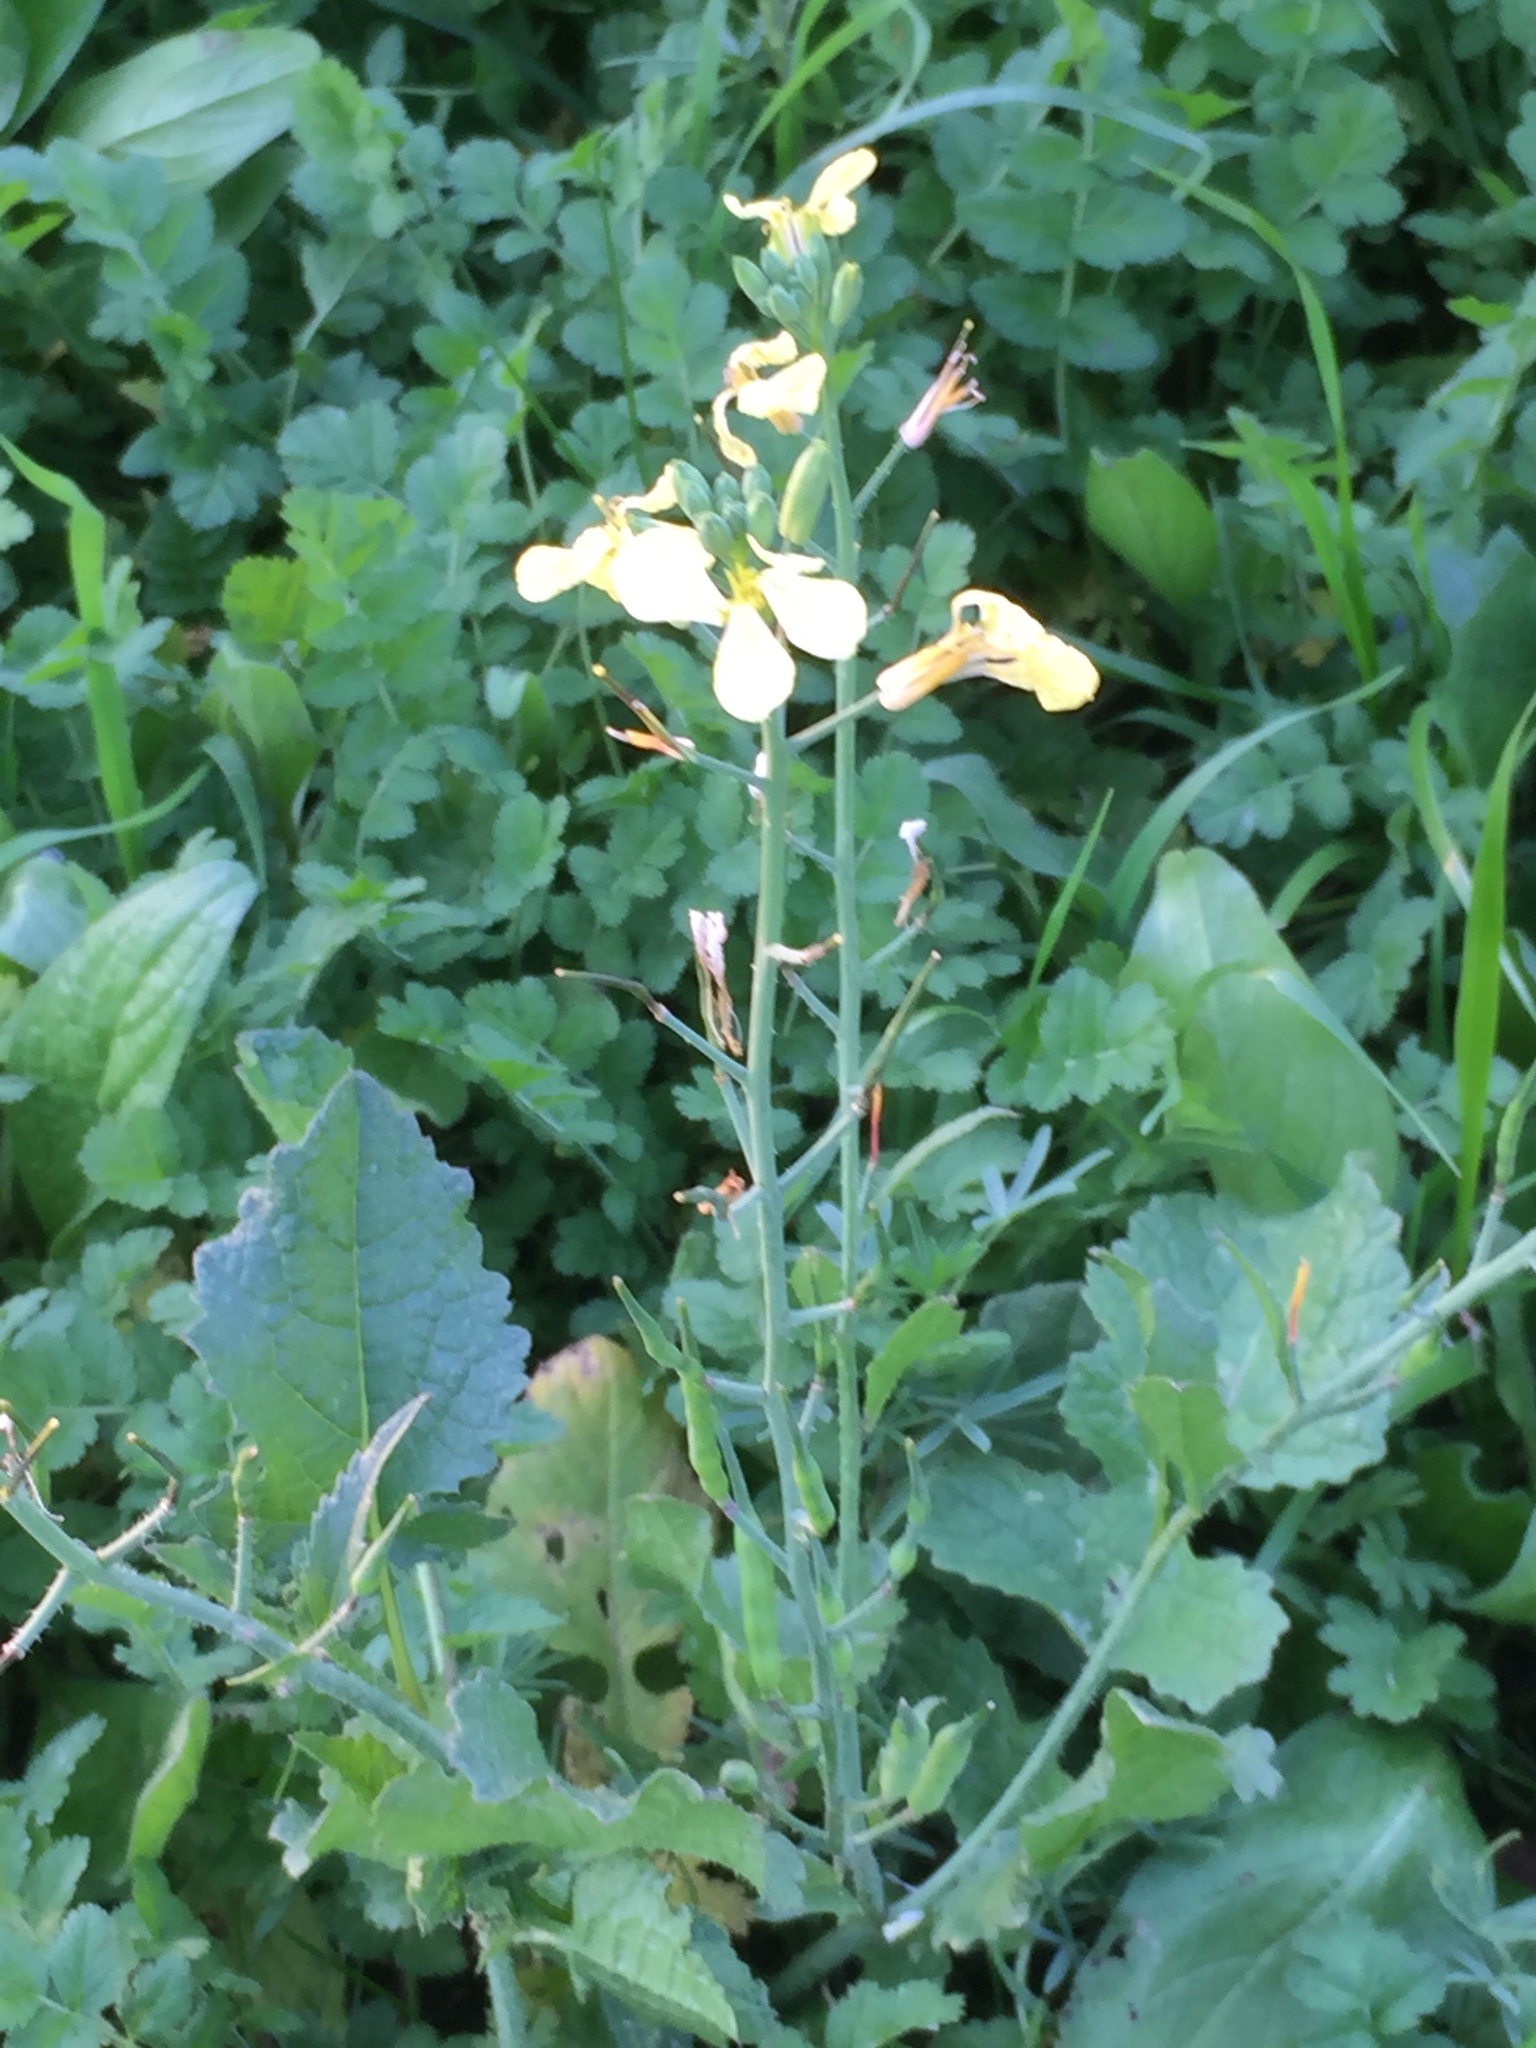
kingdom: Plantae
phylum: Tracheophyta
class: Magnoliopsida
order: Brassicales
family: Brassicaceae
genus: Raphanus
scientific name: Raphanus raphanistrum
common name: Wild radish
